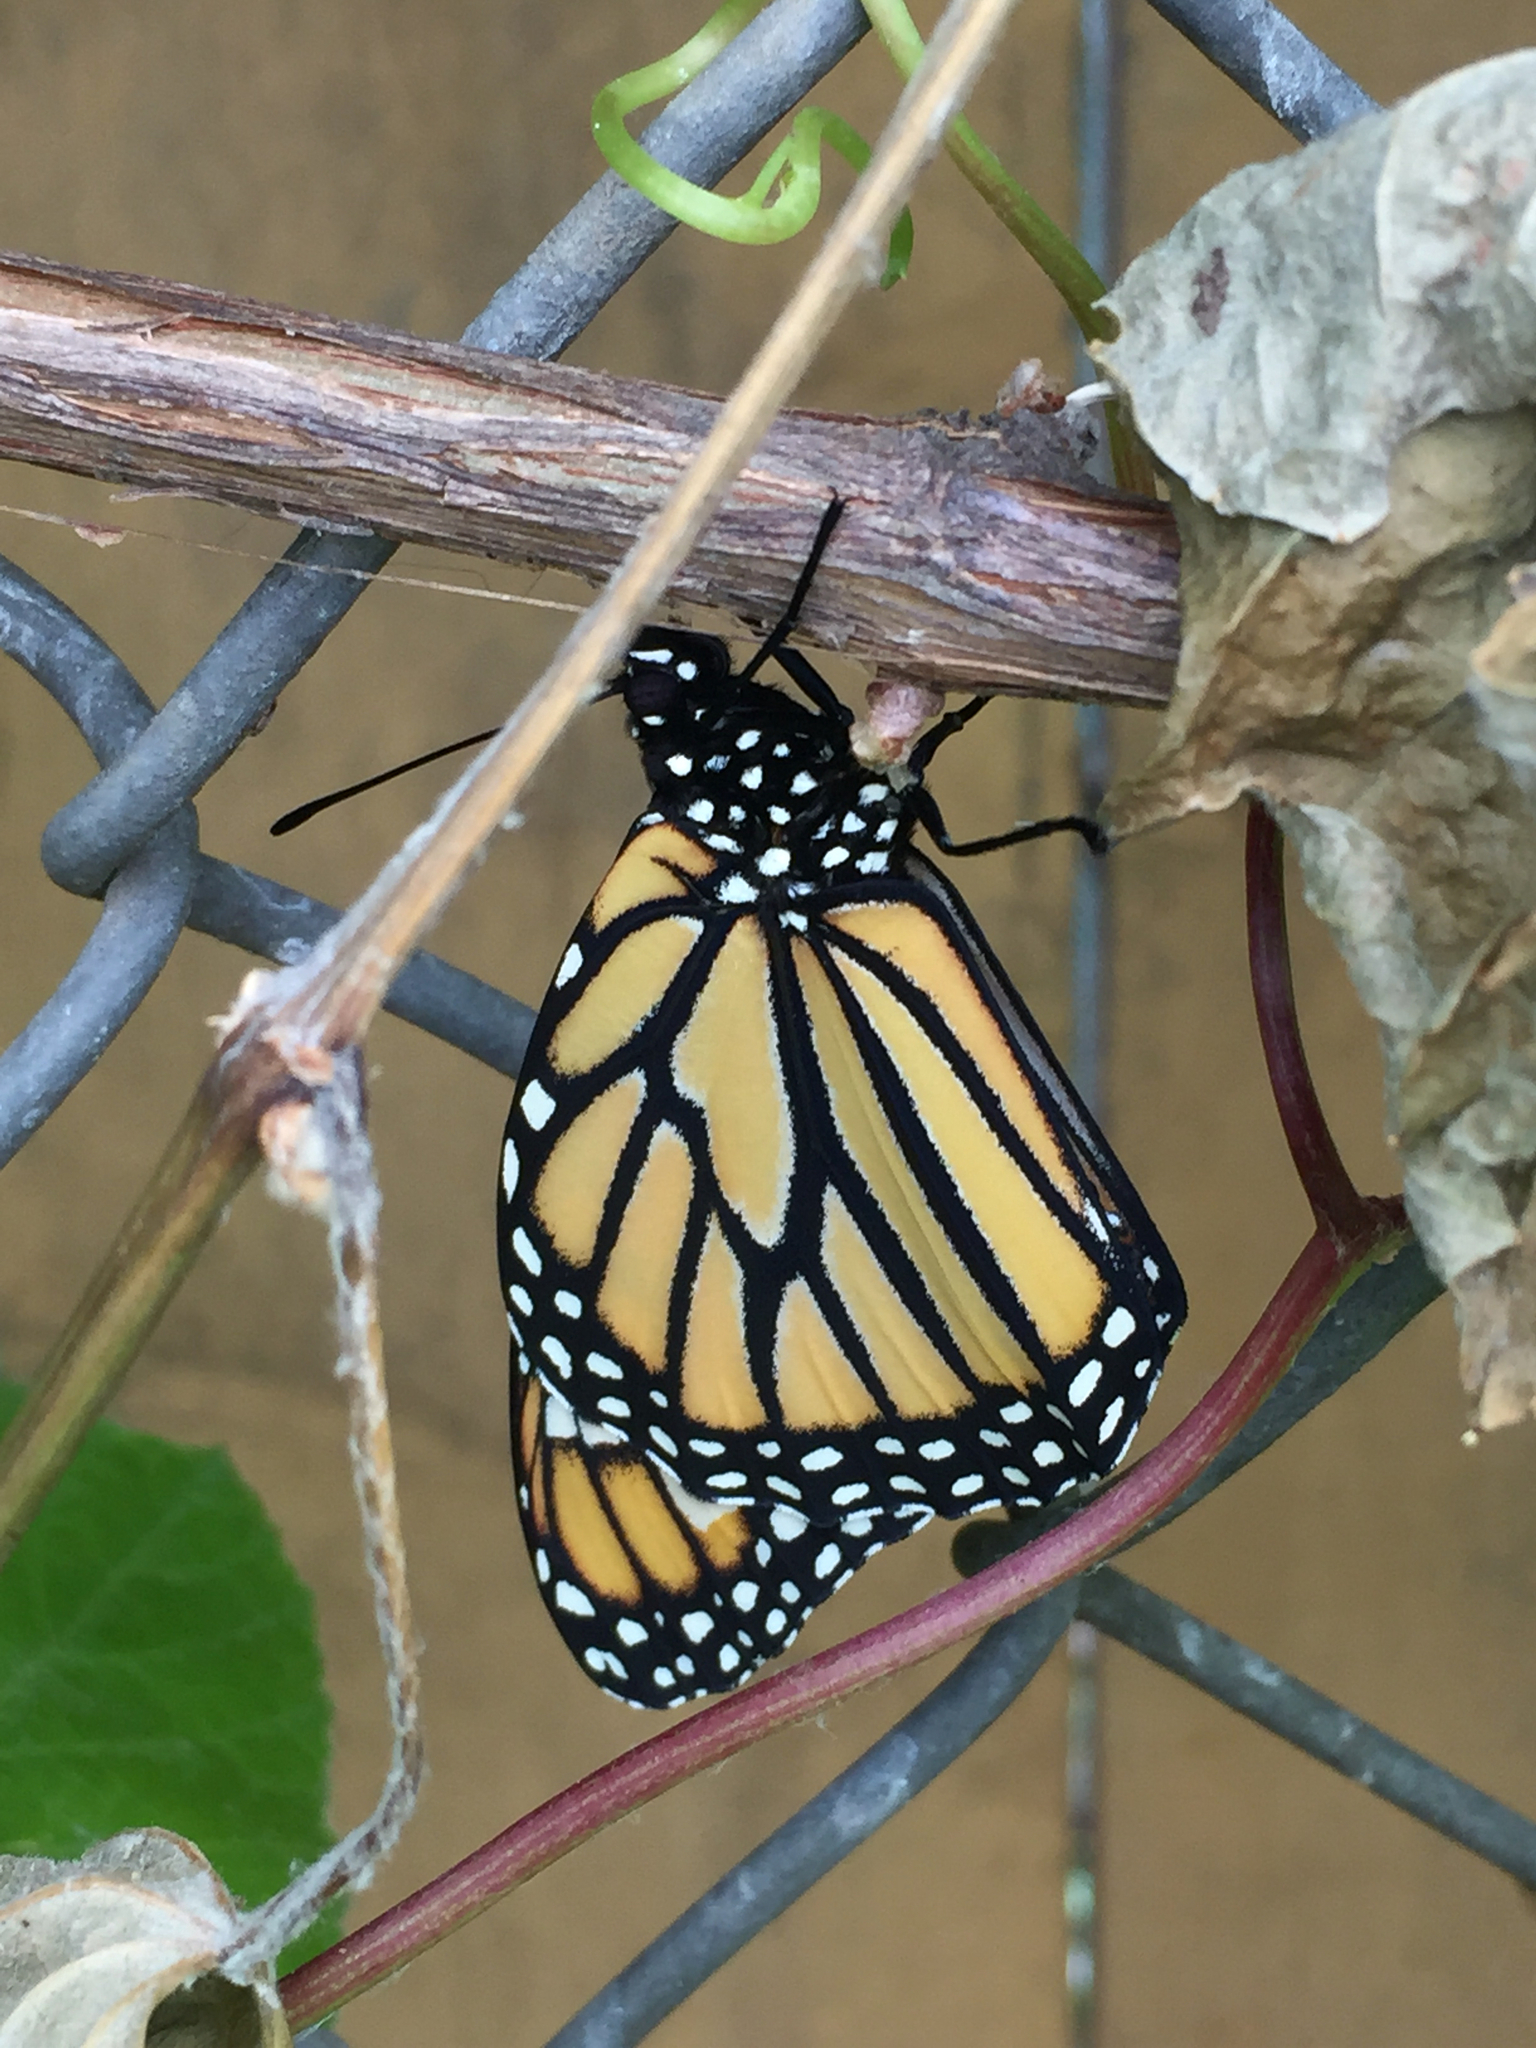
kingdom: Animalia
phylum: Arthropoda
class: Insecta
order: Lepidoptera
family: Nymphalidae
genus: Danaus
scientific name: Danaus plexippus
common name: Monarch
